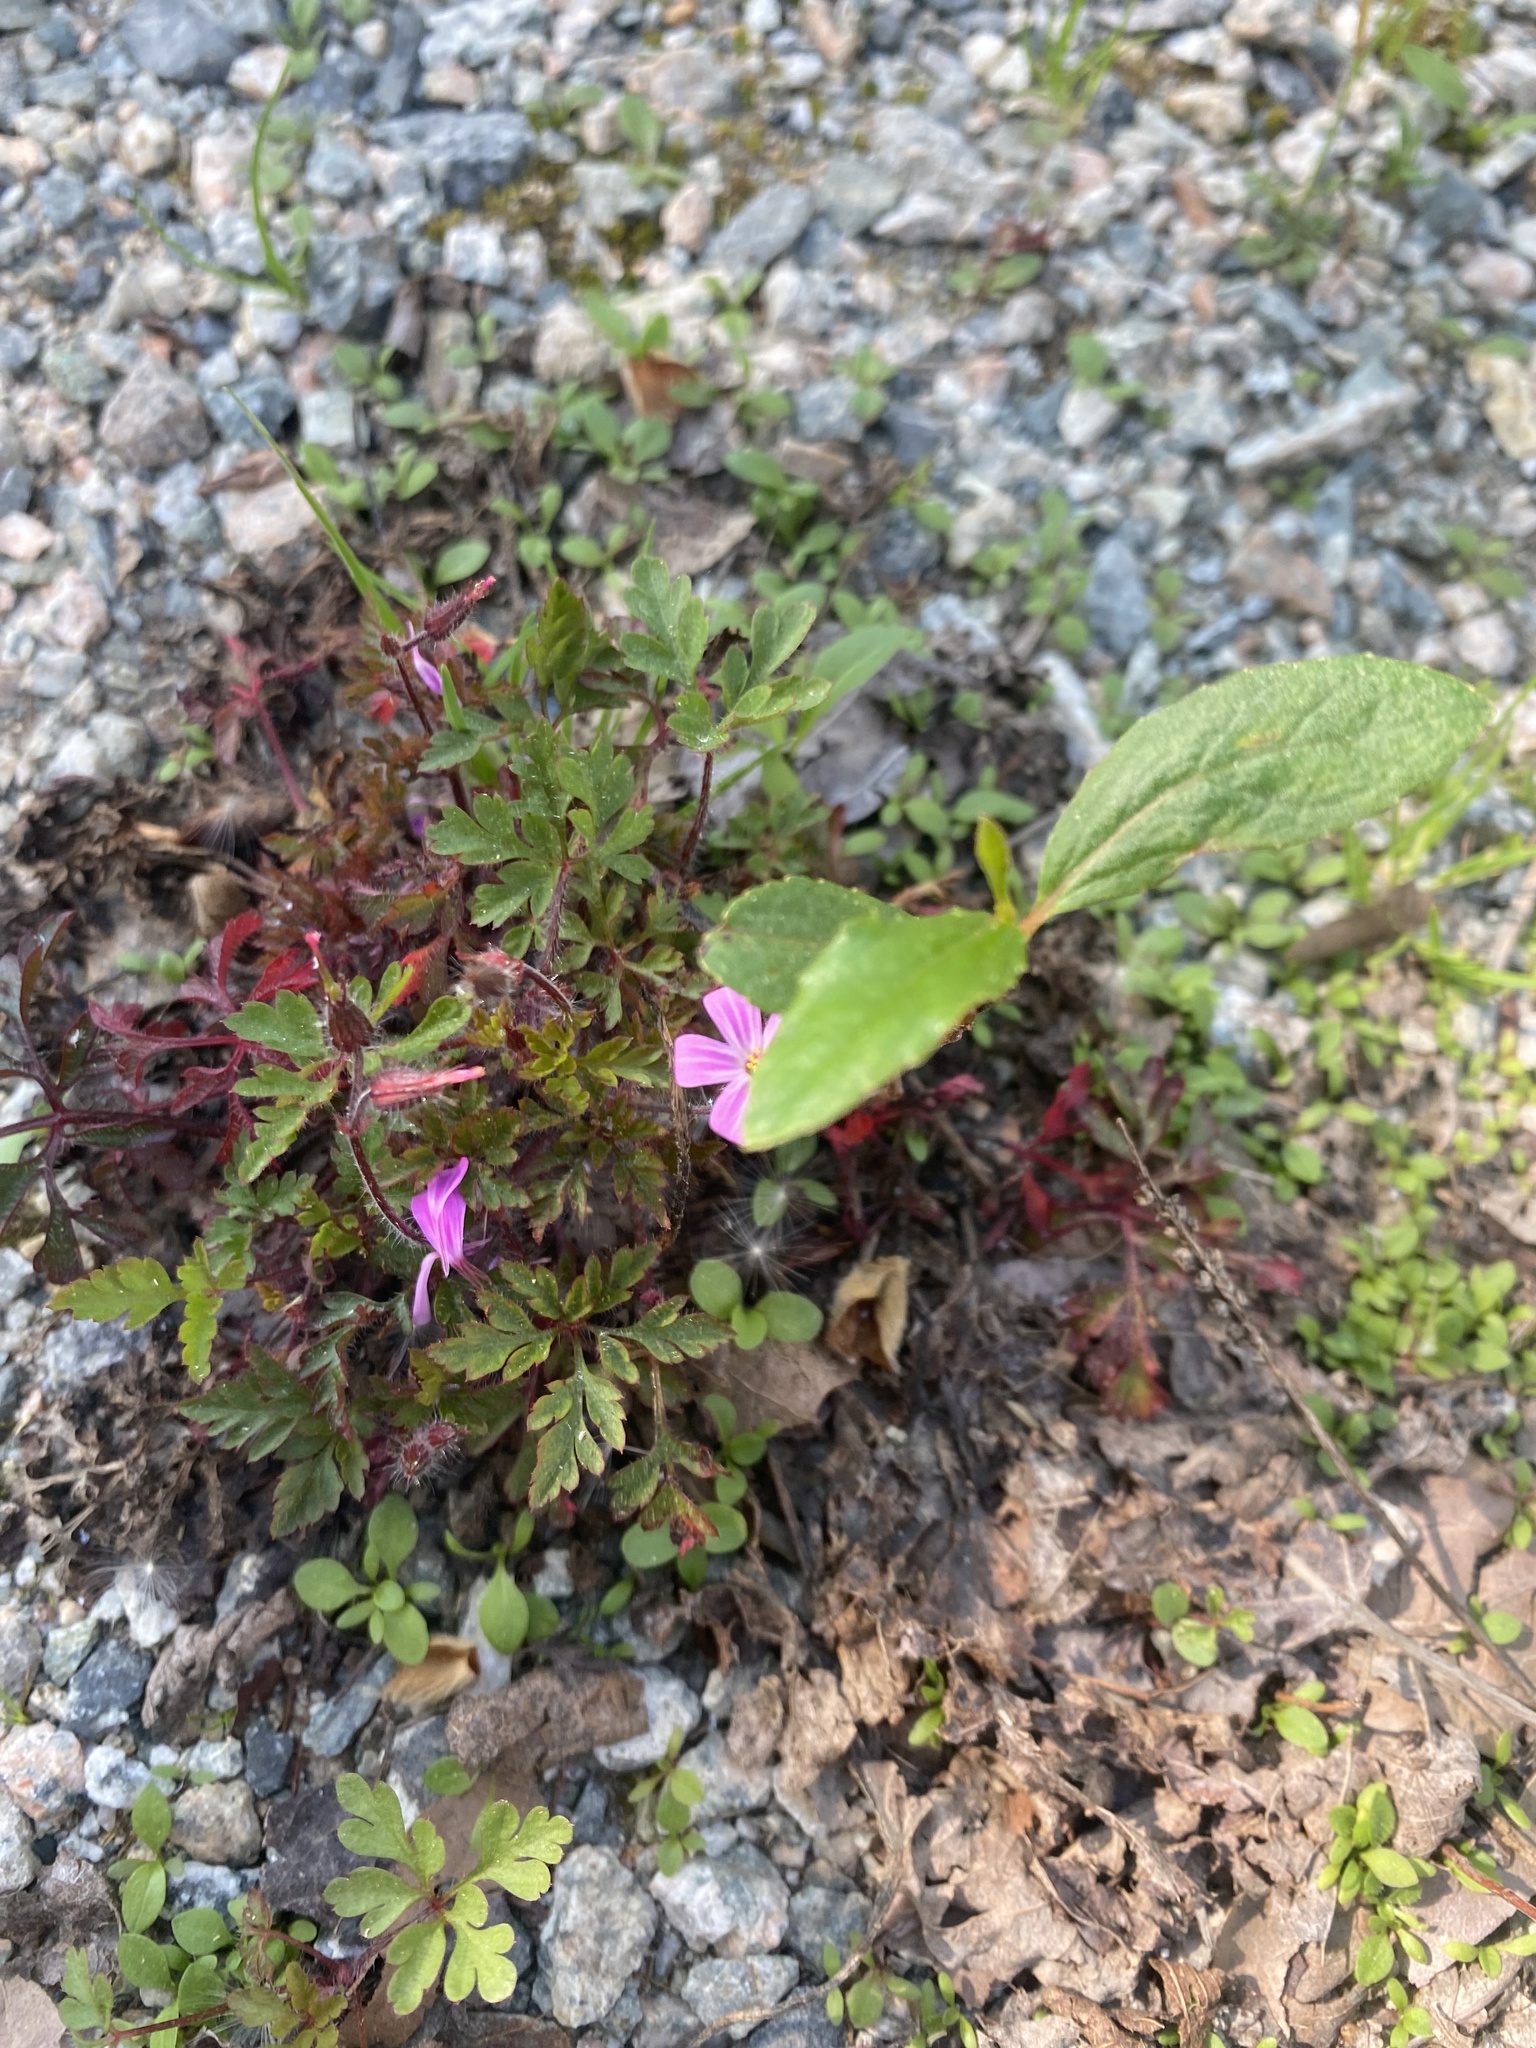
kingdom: Plantae
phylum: Tracheophyta
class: Magnoliopsida
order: Geraniales
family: Geraniaceae
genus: Geranium
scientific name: Geranium robertianum
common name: Herb-robert
